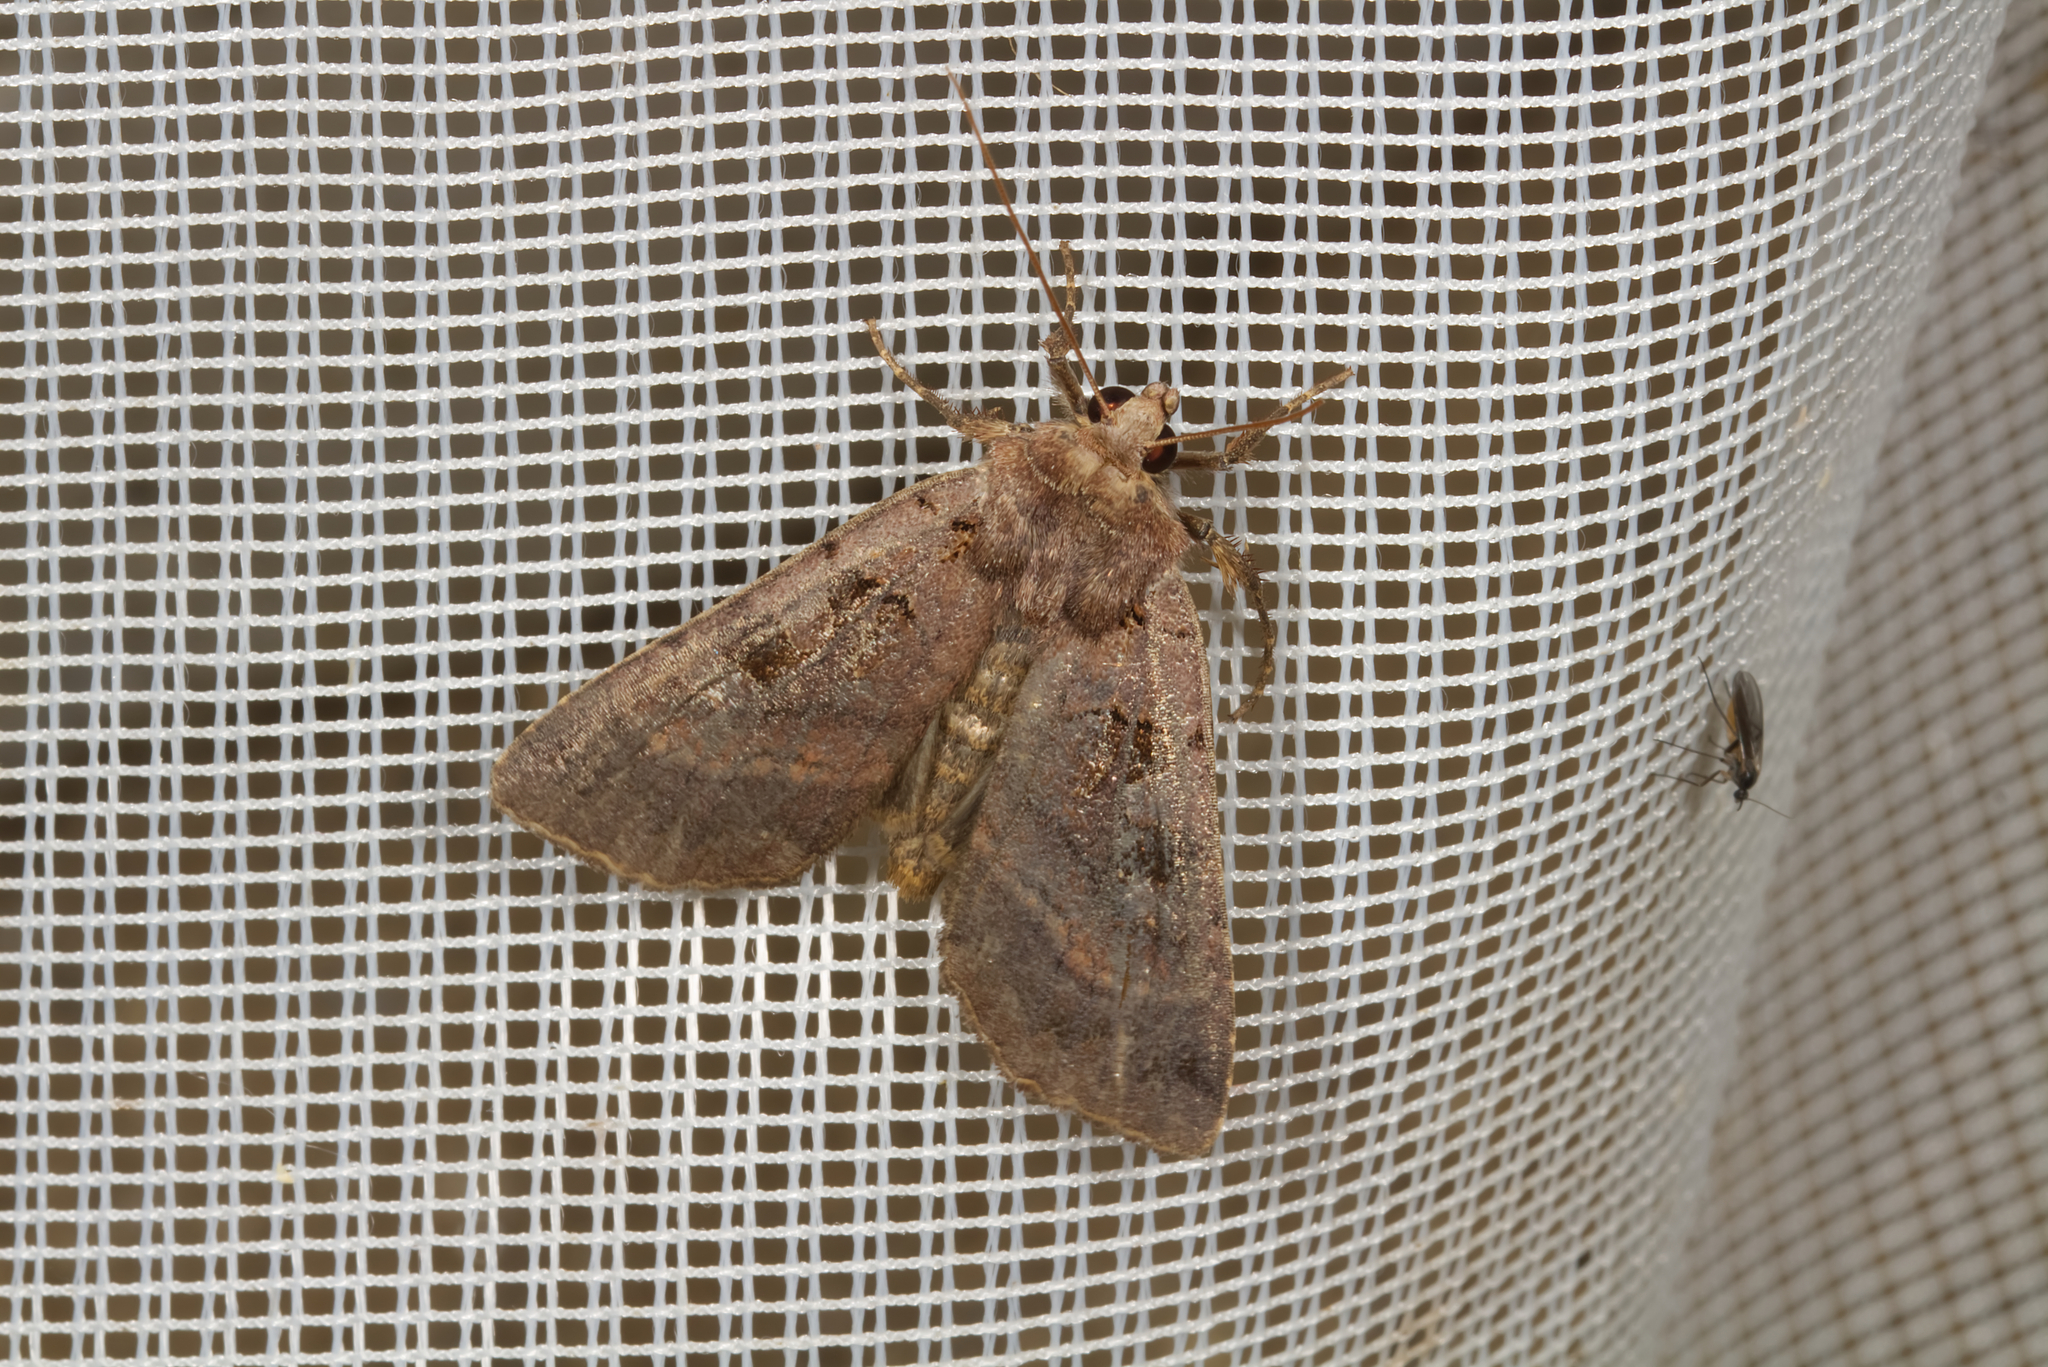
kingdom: Animalia
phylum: Arthropoda
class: Insecta
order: Lepidoptera
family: Noctuidae
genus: Xestia
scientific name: Xestia stigmatica
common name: Square-spotted clay
